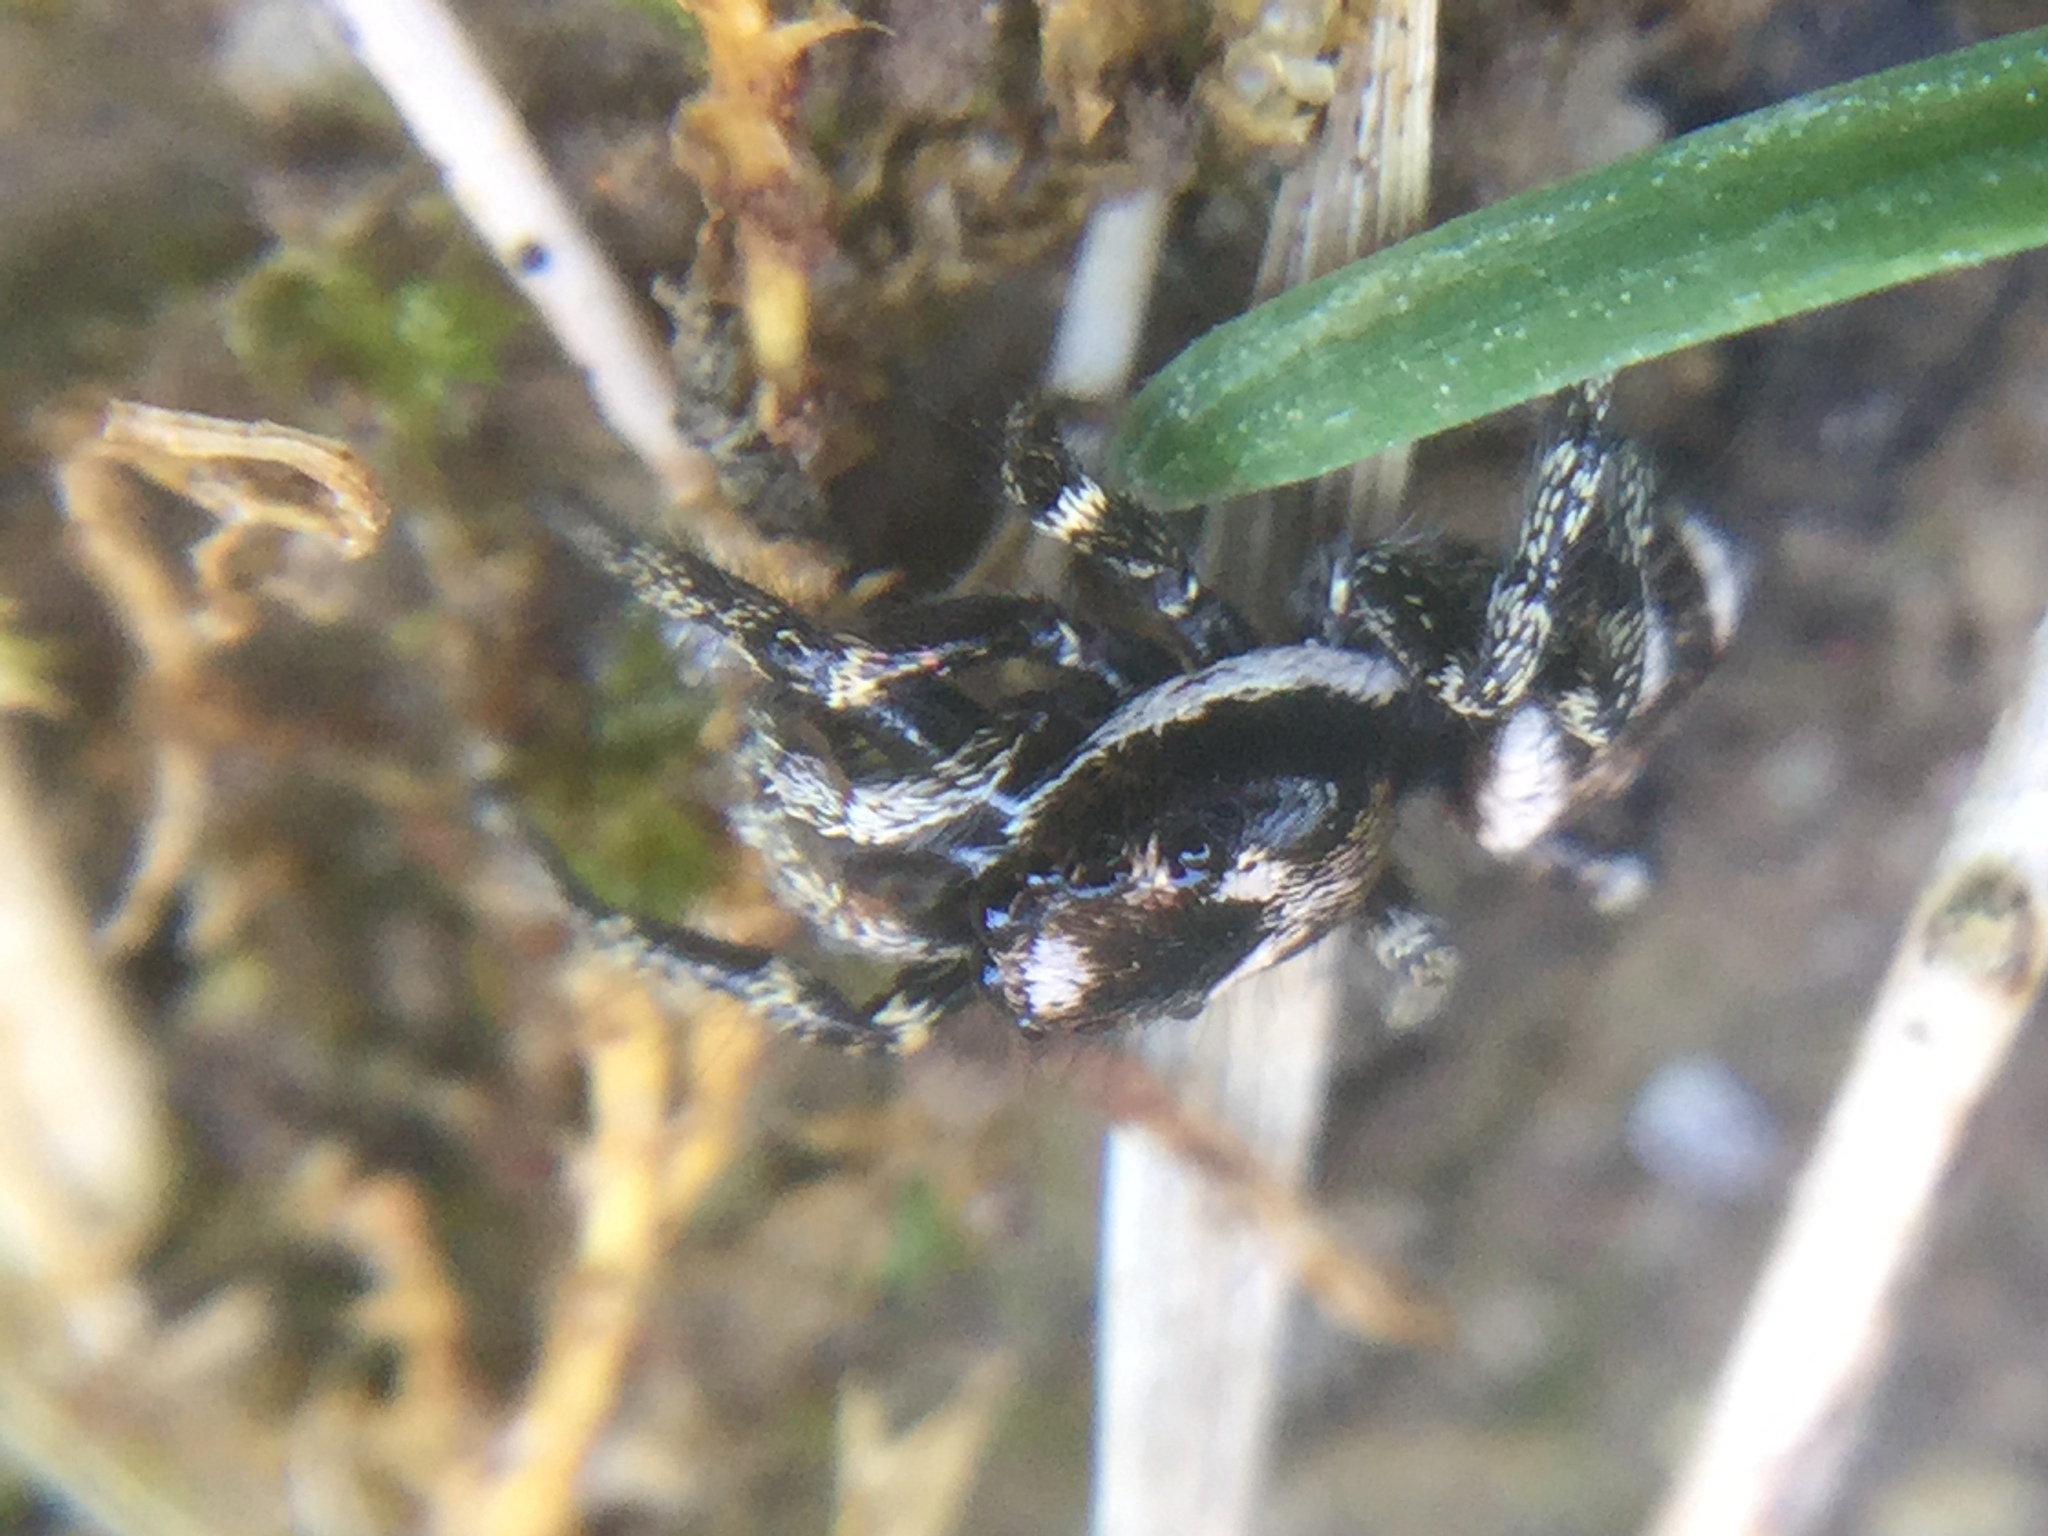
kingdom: Animalia
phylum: Arthropoda
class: Arachnida
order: Araneae
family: Salticidae
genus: Salticus
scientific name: Salticus scenicus
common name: Zebra jumper
